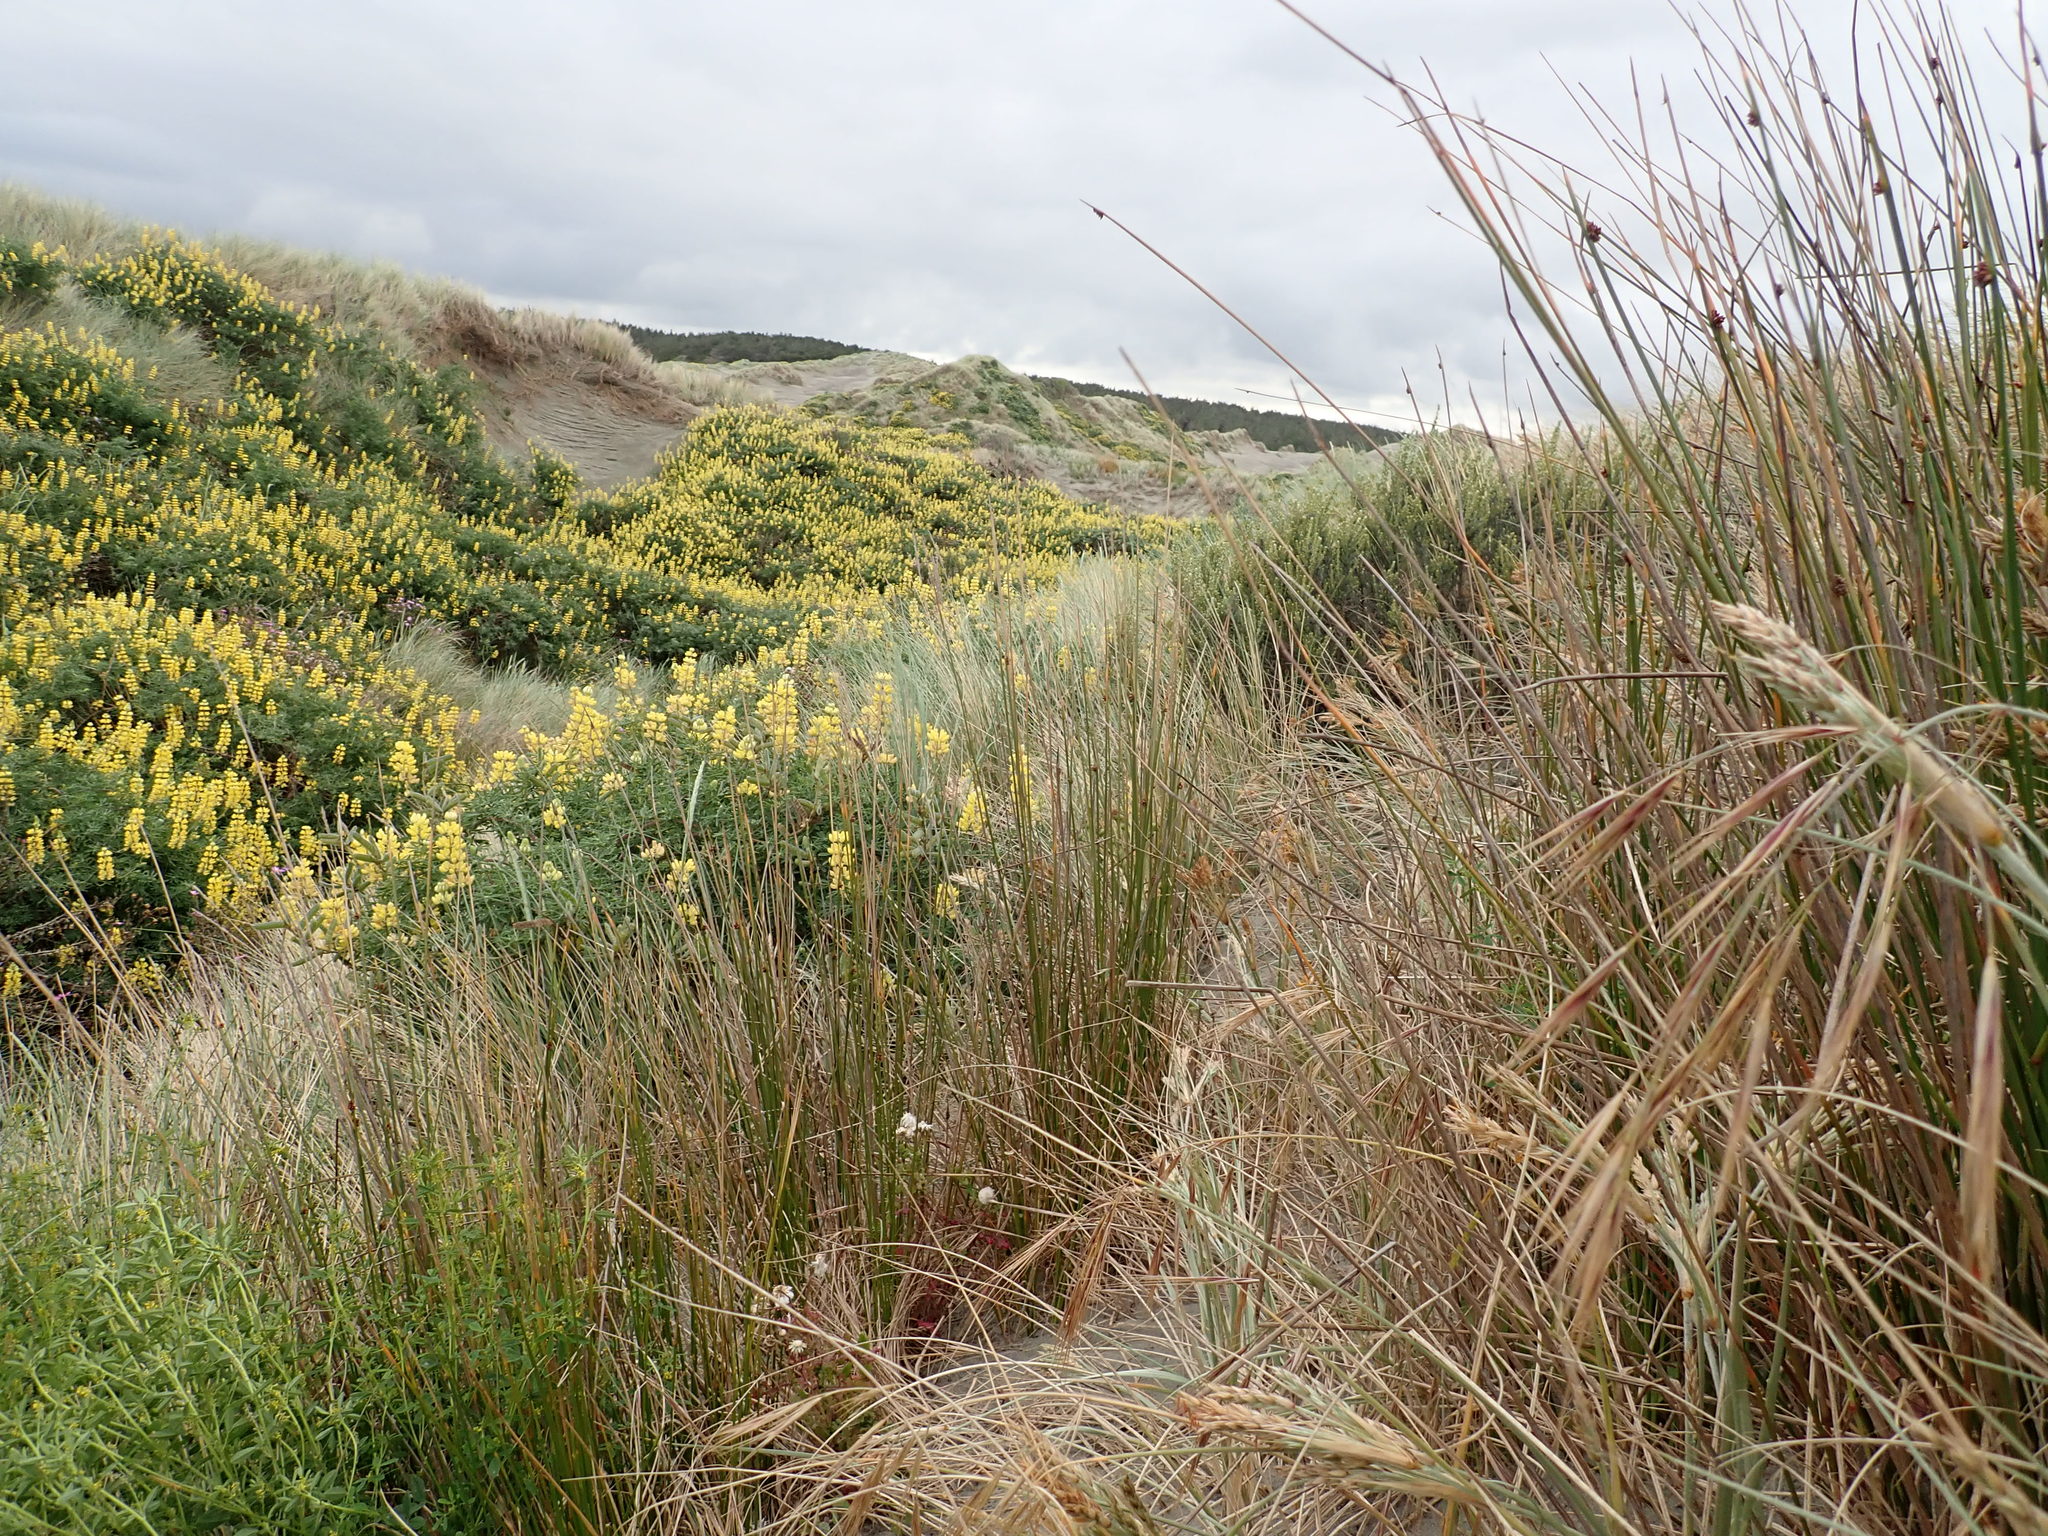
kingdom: Plantae
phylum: Tracheophyta
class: Liliopsida
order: Poales
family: Cyperaceae
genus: Ficinia
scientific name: Ficinia nodosa
